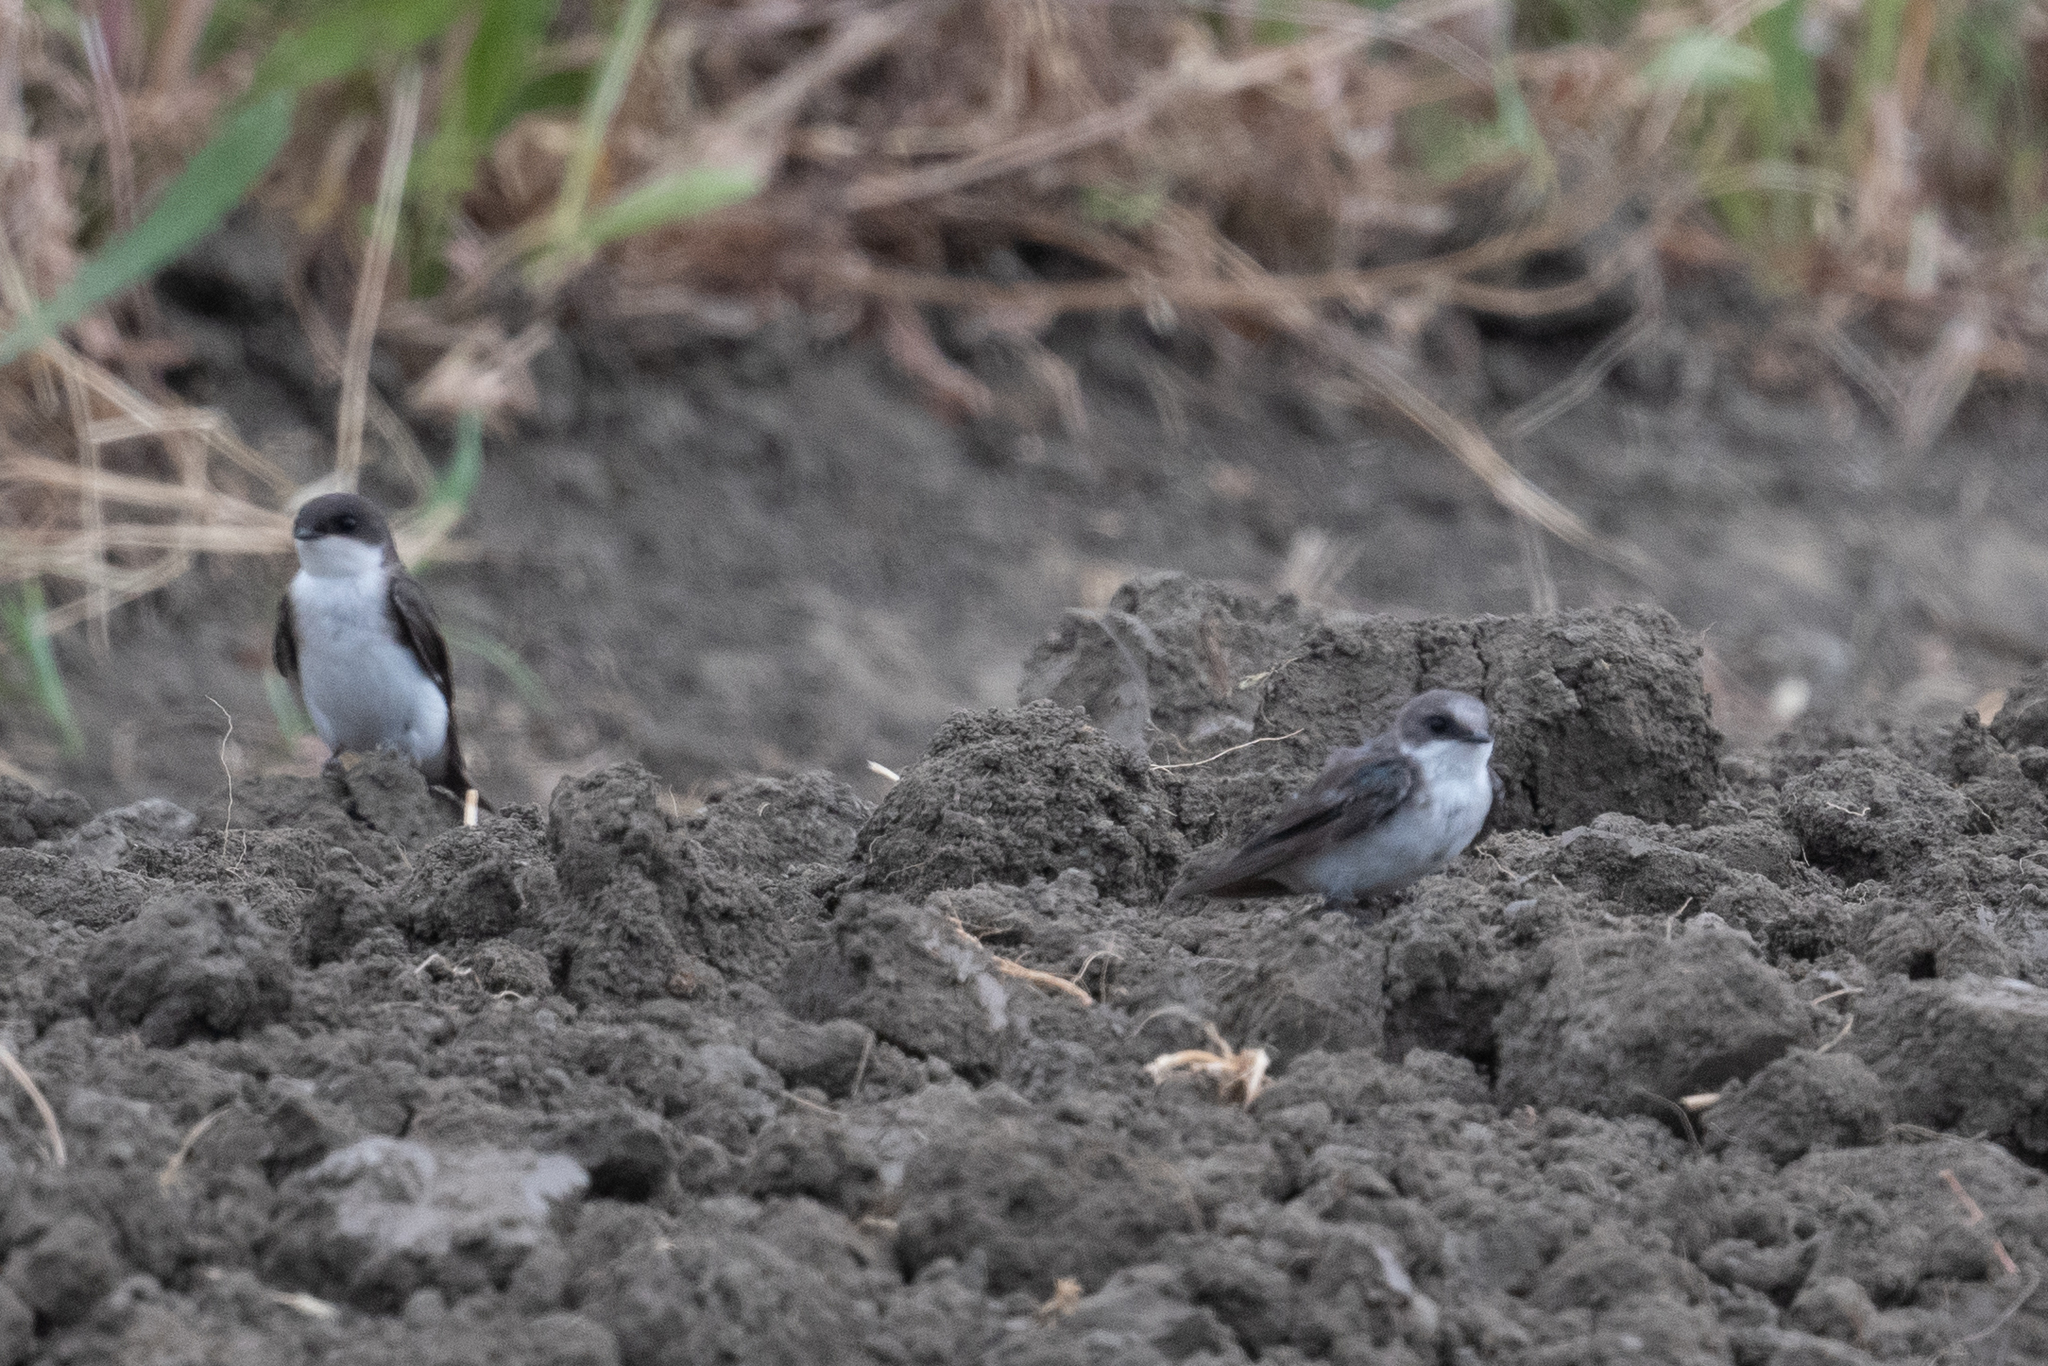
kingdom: Animalia
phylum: Chordata
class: Aves
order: Passeriformes
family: Hirundinidae
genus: Tachycineta
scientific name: Tachycineta bicolor
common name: Tree swallow
